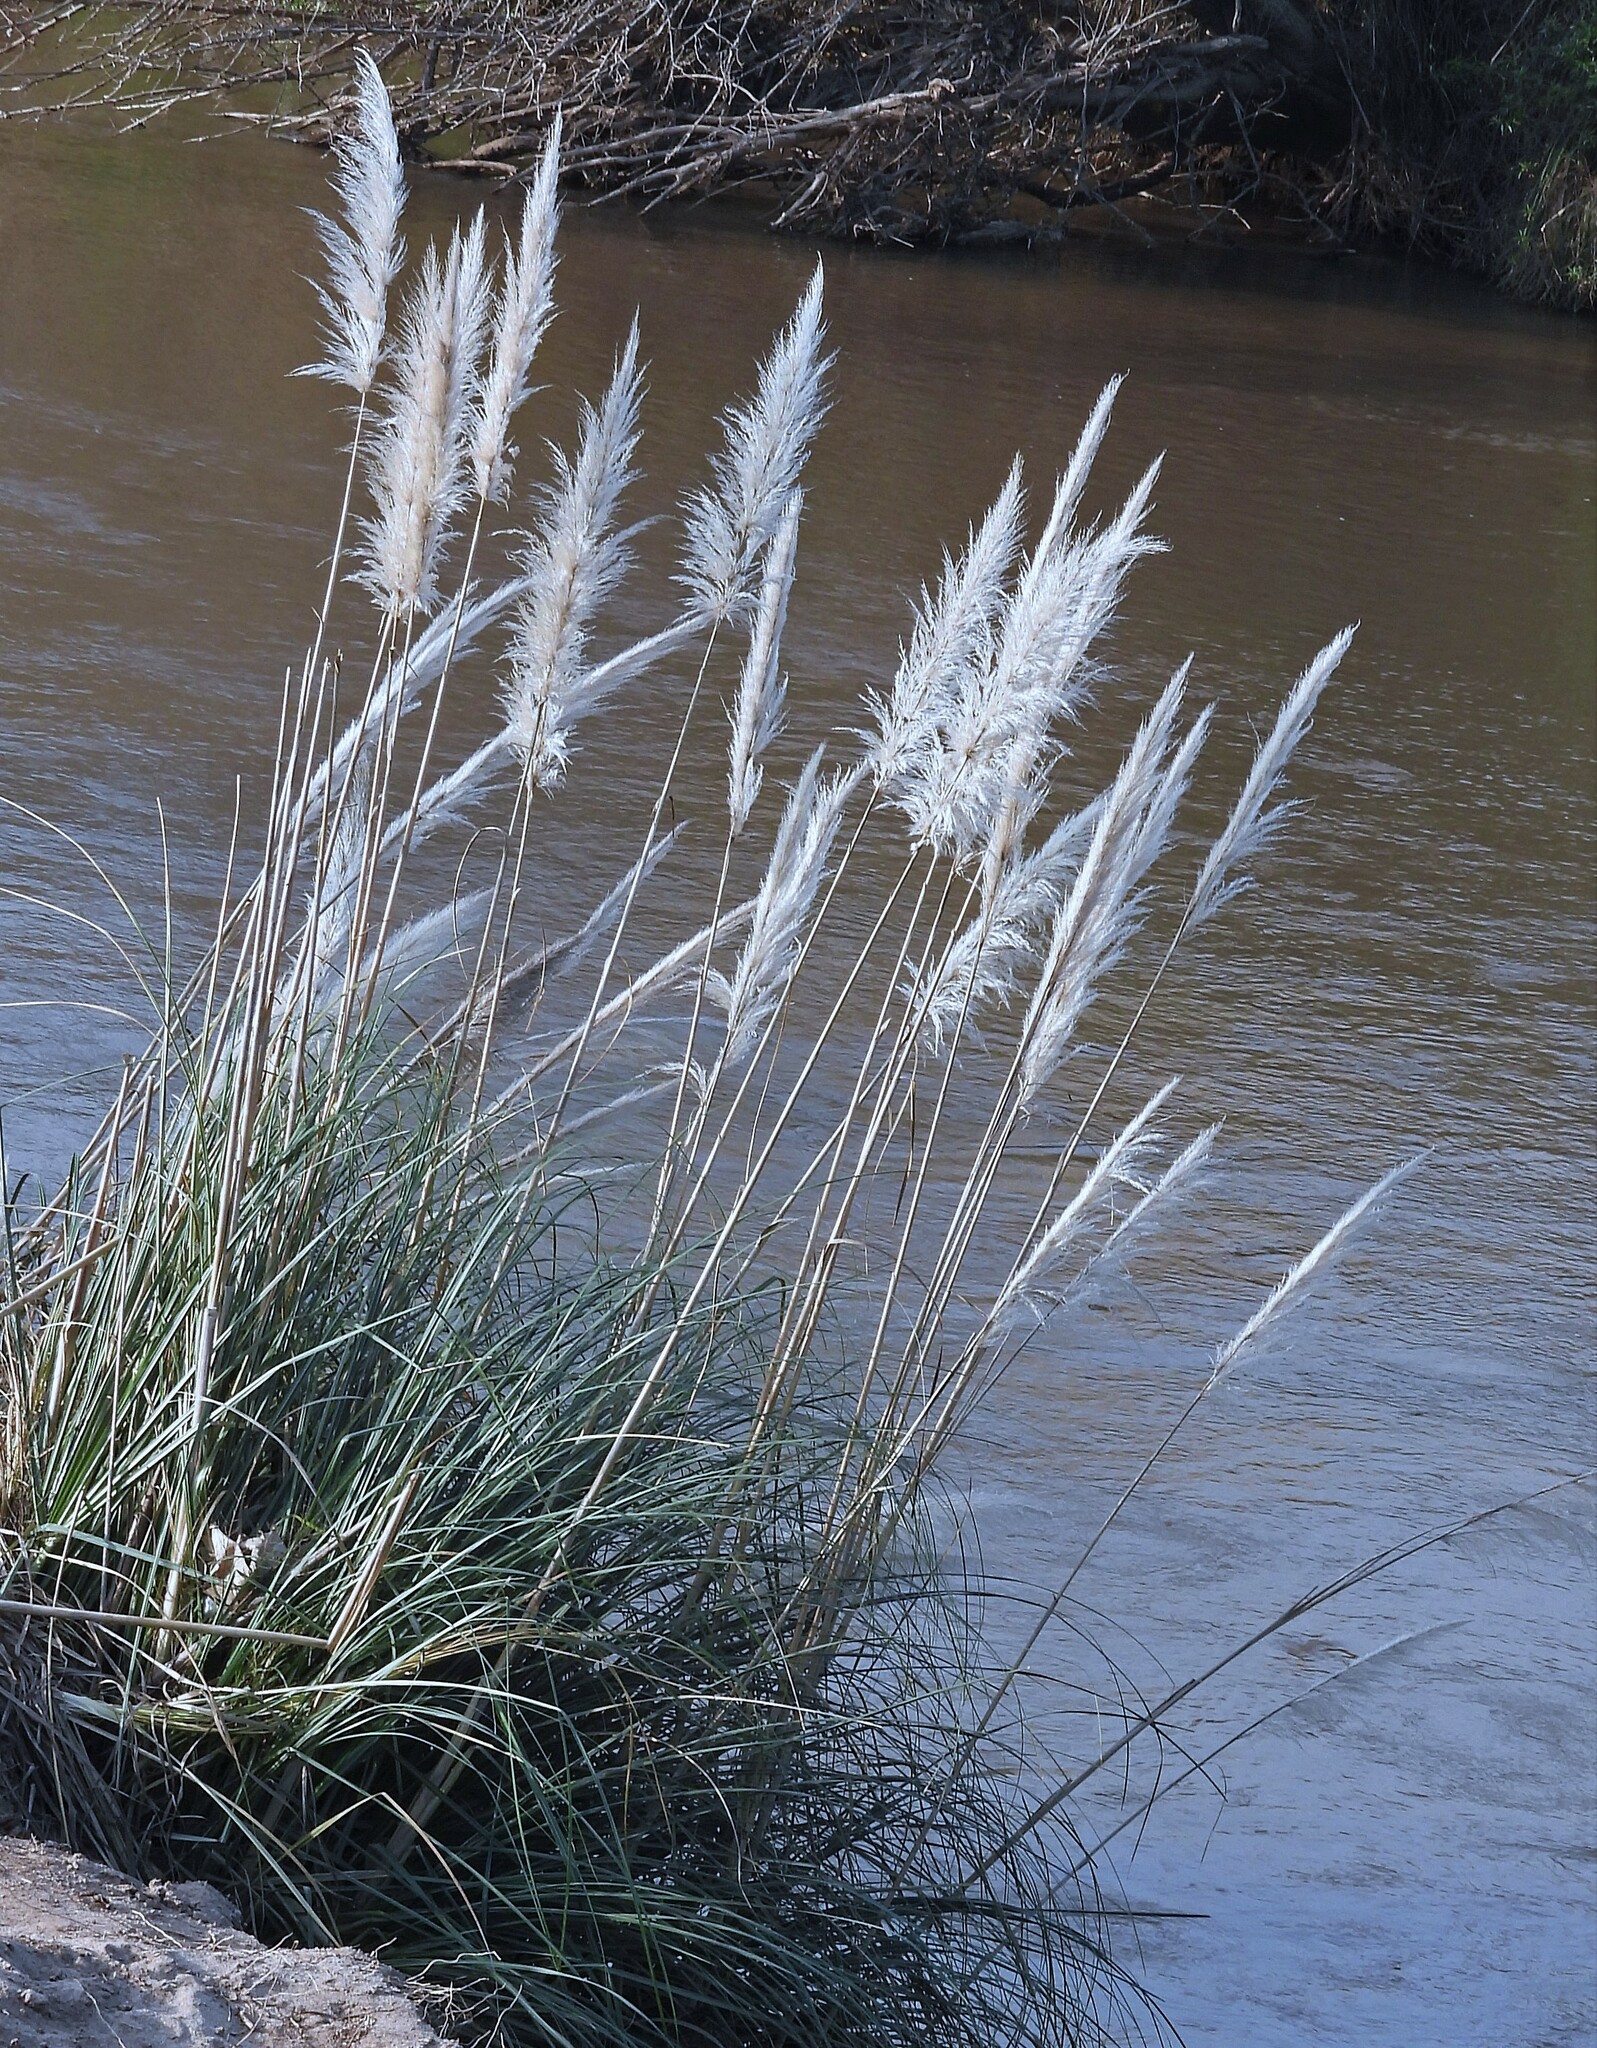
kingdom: Plantae
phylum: Tracheophyta
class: Liliopsida
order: Poales
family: Poaceae
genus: Cortaderia
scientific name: Cortaderia selloana
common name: Uruguayan pampas grass
